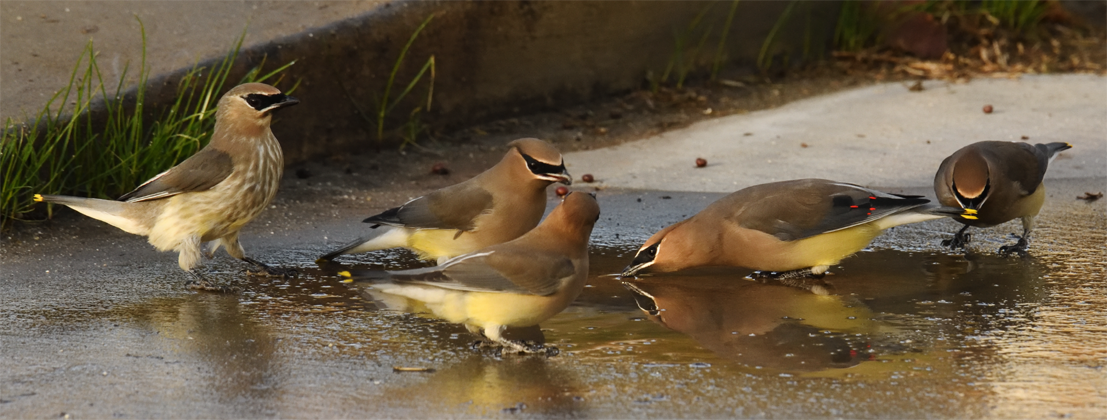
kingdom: Animalia
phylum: Chordata
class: Aves
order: Passeriformes
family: Bombycillidae
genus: Bombycilla
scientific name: Bombycilla cedrorum
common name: Cedar waxwing
